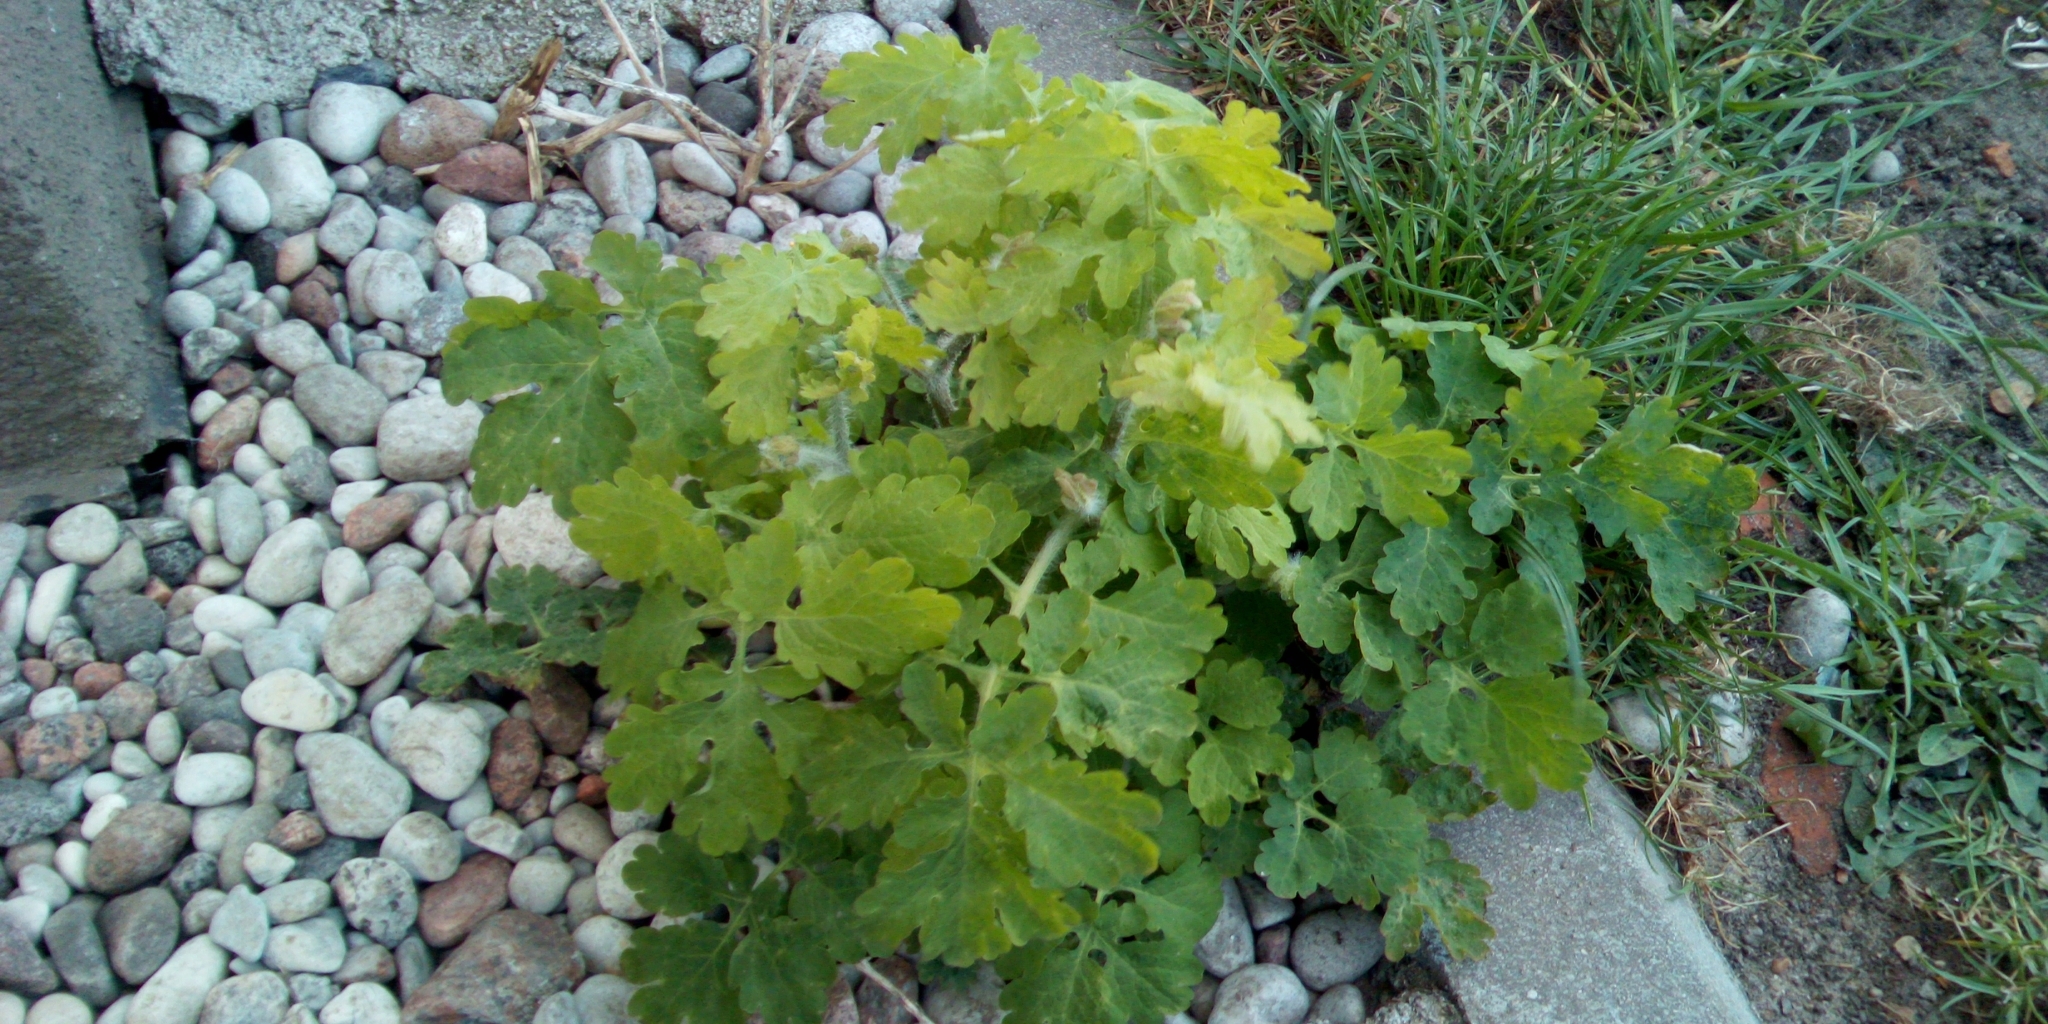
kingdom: Plantae
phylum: Tracheophyta
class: Magnoliopsida
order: Ranunculales
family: Papaveraceae
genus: Chelidonium
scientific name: Chelidonium majus
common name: Greater celandine
